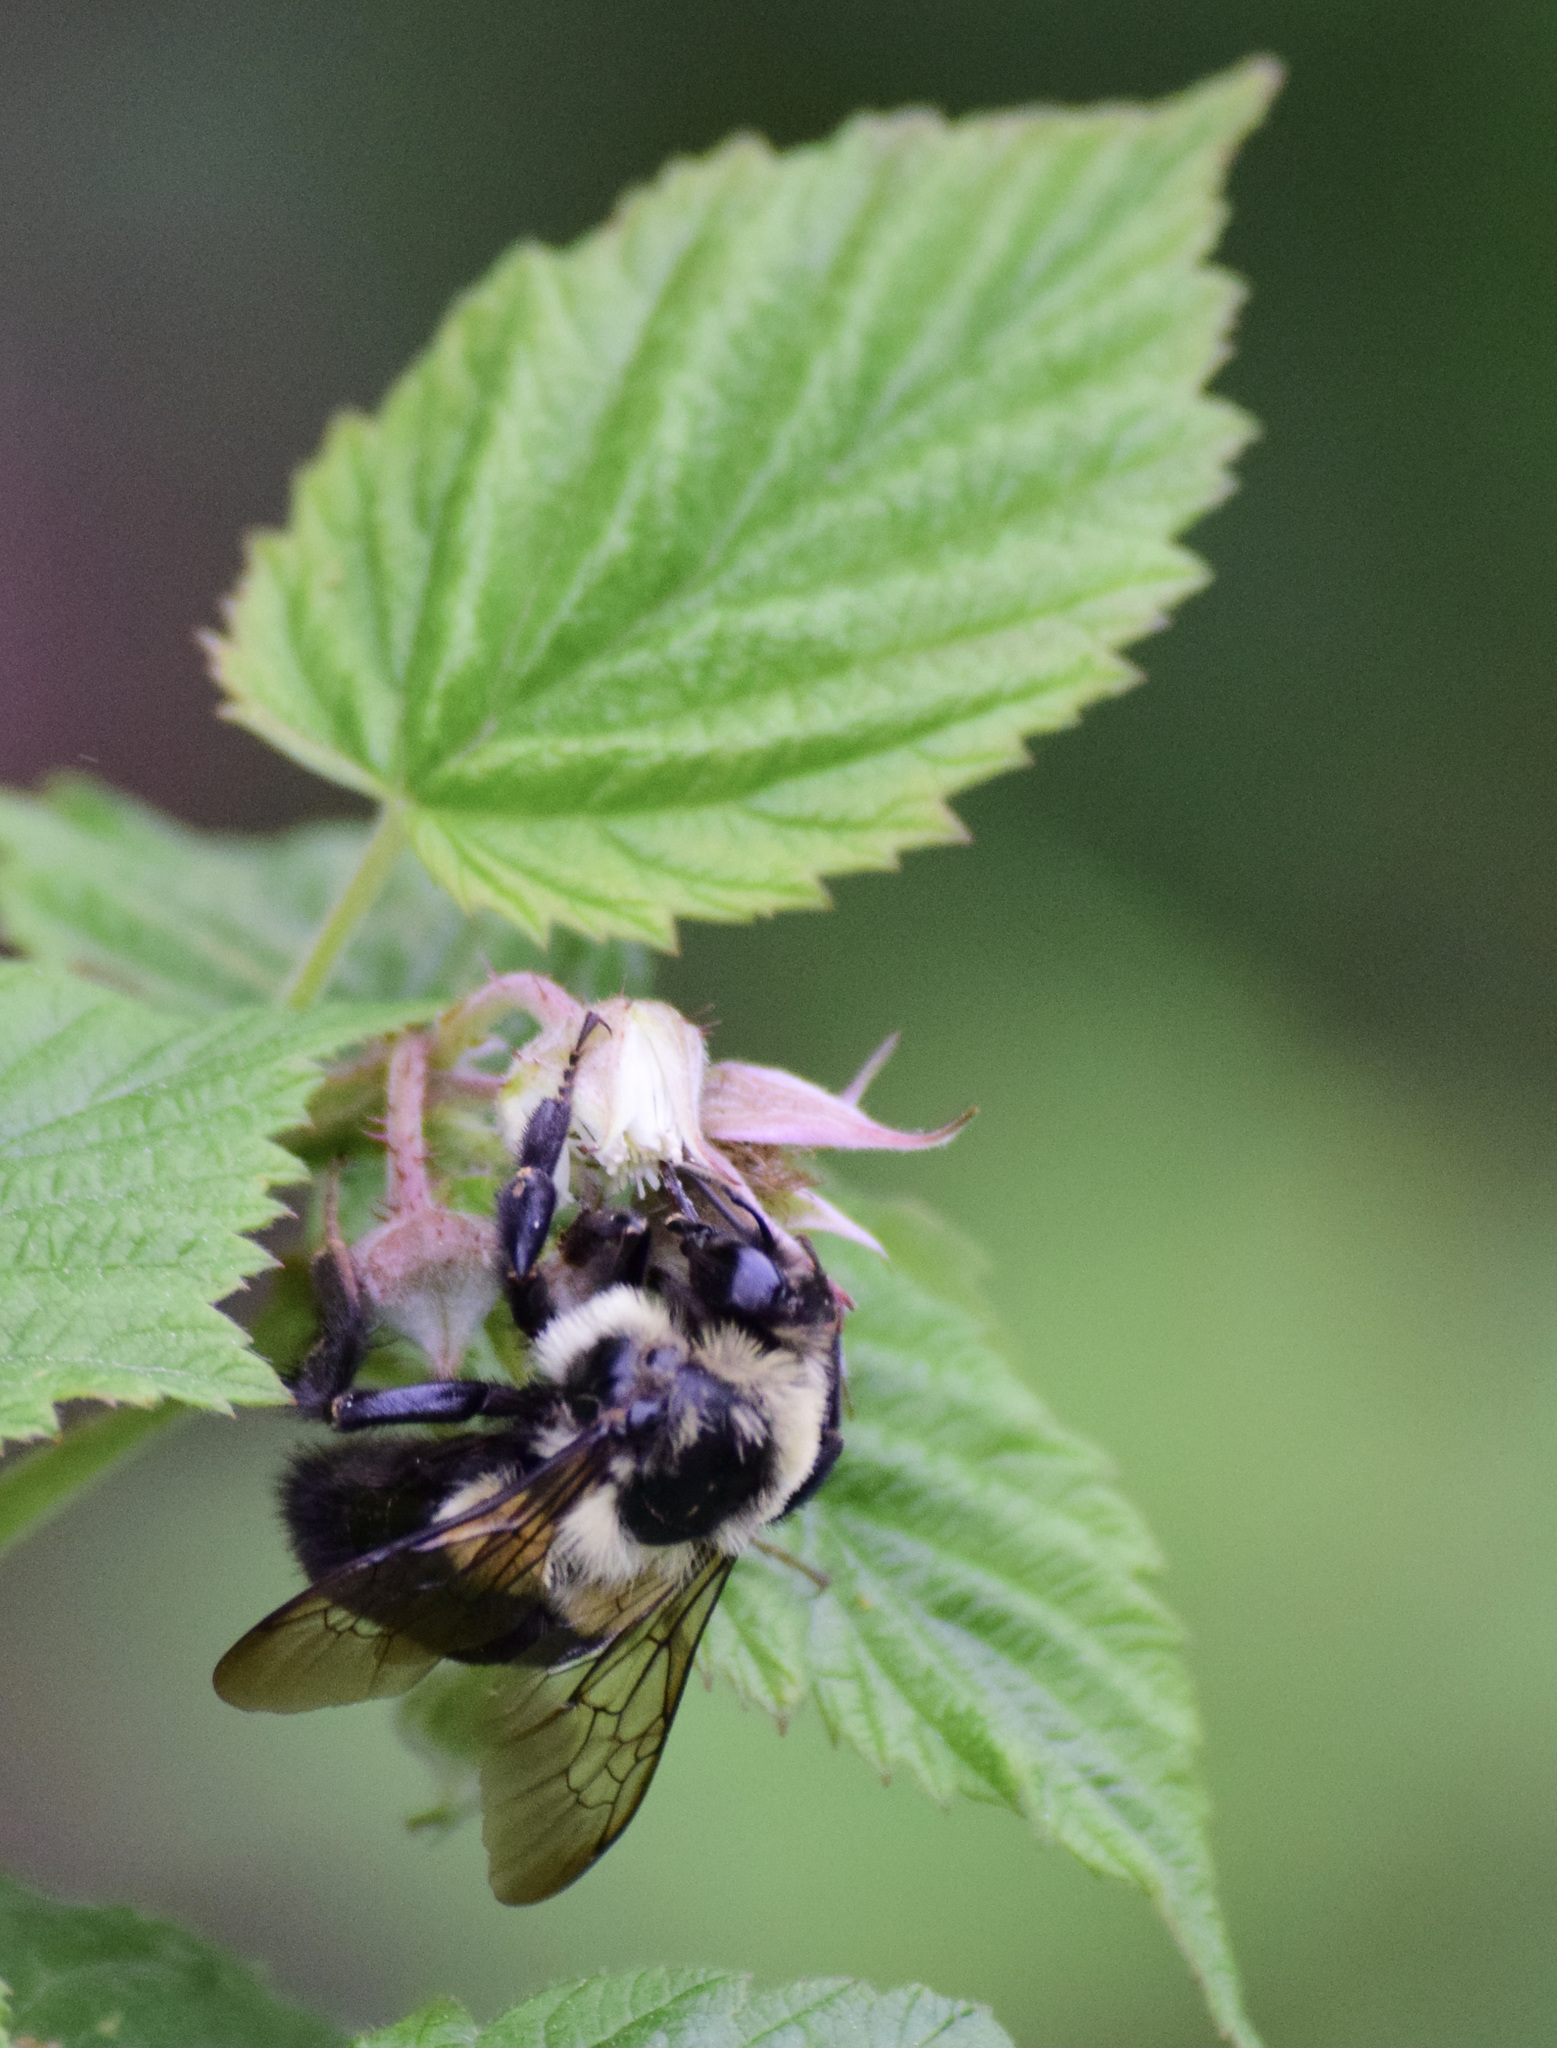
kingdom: Animalia
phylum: Arthropoda
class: Insecta
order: Hymenoptera
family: Apidae
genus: Bombus
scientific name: Bombus impatiens
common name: Common eastern bumble bee
